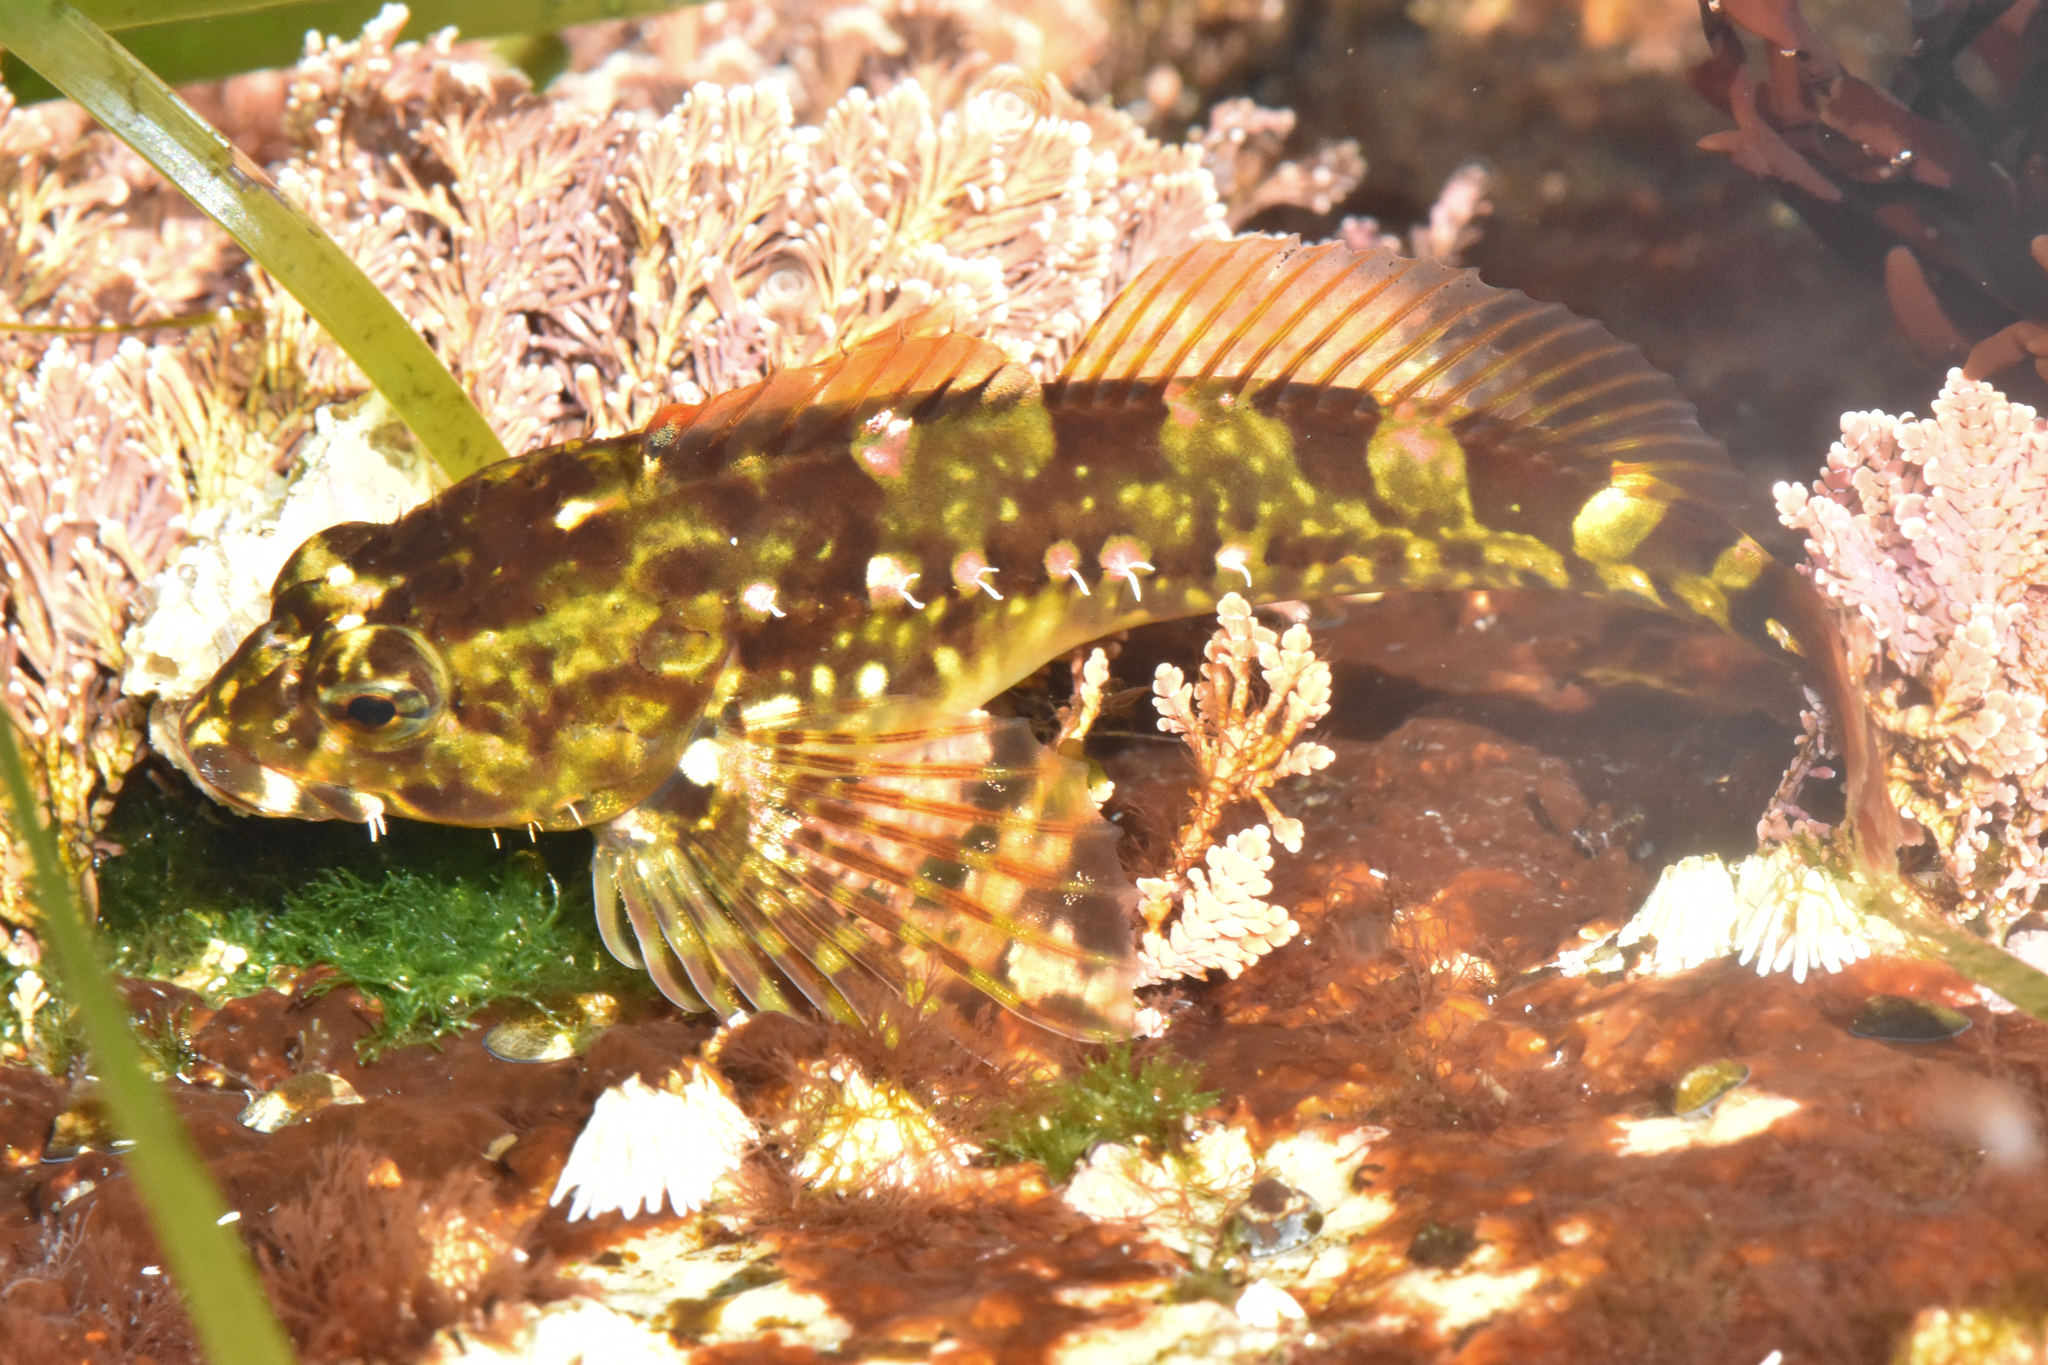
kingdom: Animalia
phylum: Chordata
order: Scorpaeniformes
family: Cottidae
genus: Oligocottus
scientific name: Oligocottus maculosus
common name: Tidepool sculpin
